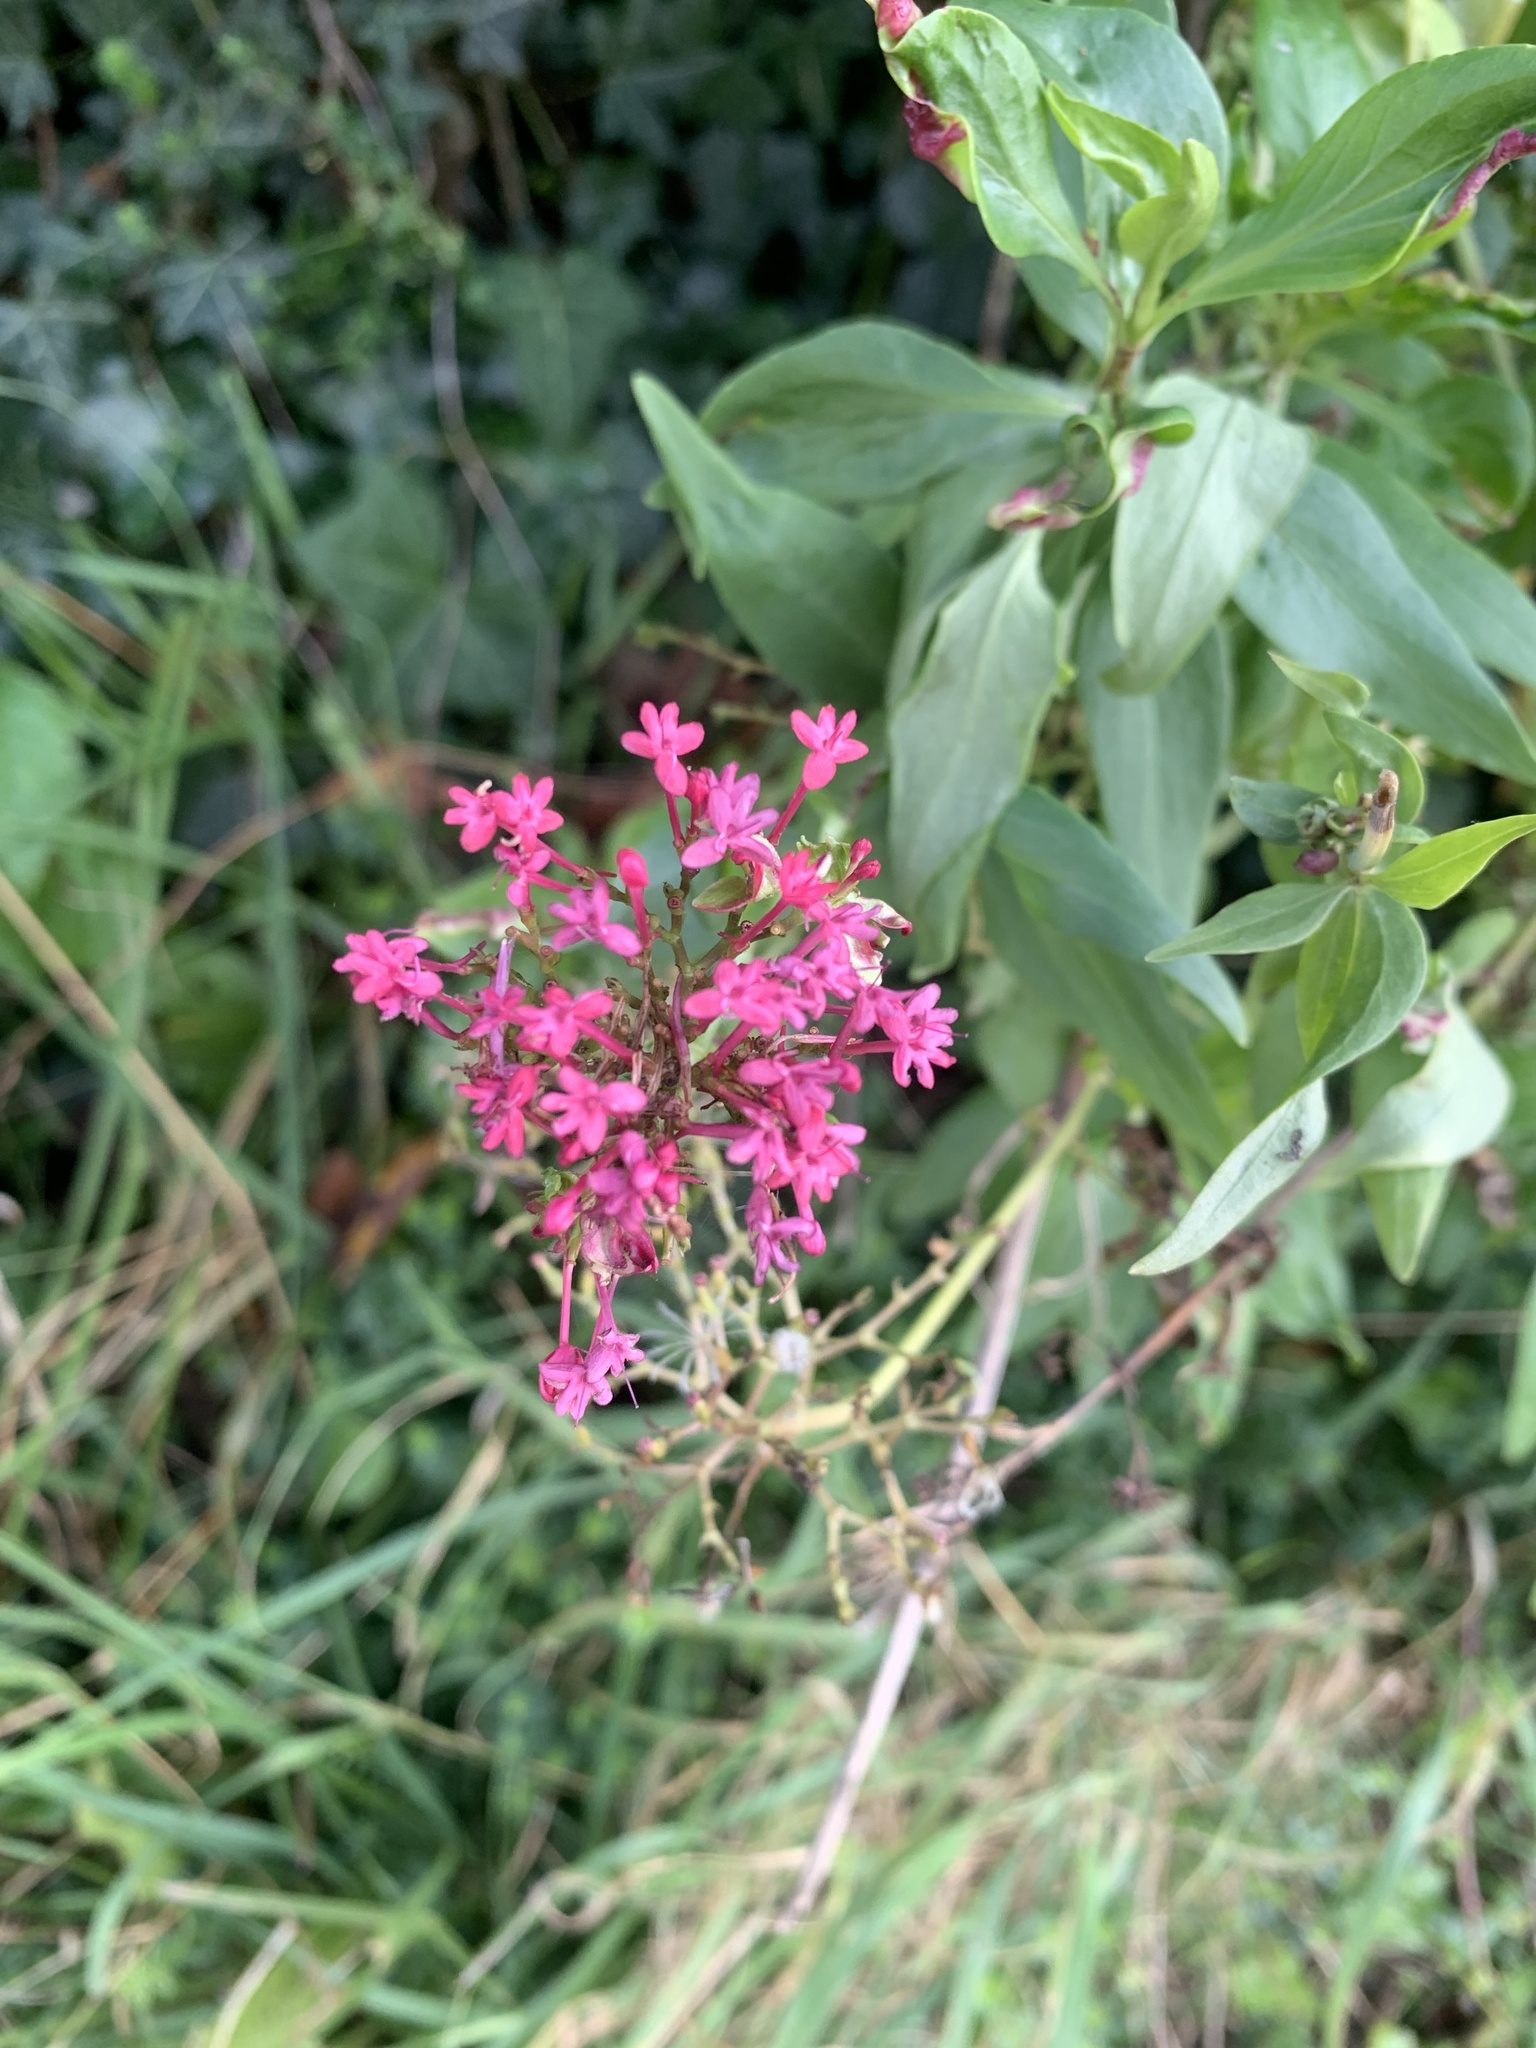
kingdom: Plantae
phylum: Tracheophyta
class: Magnoliopsida
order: Dipsacales
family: Caprifoliaceae
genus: Centranthus
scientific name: Centranthus ruber
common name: Red valerian
